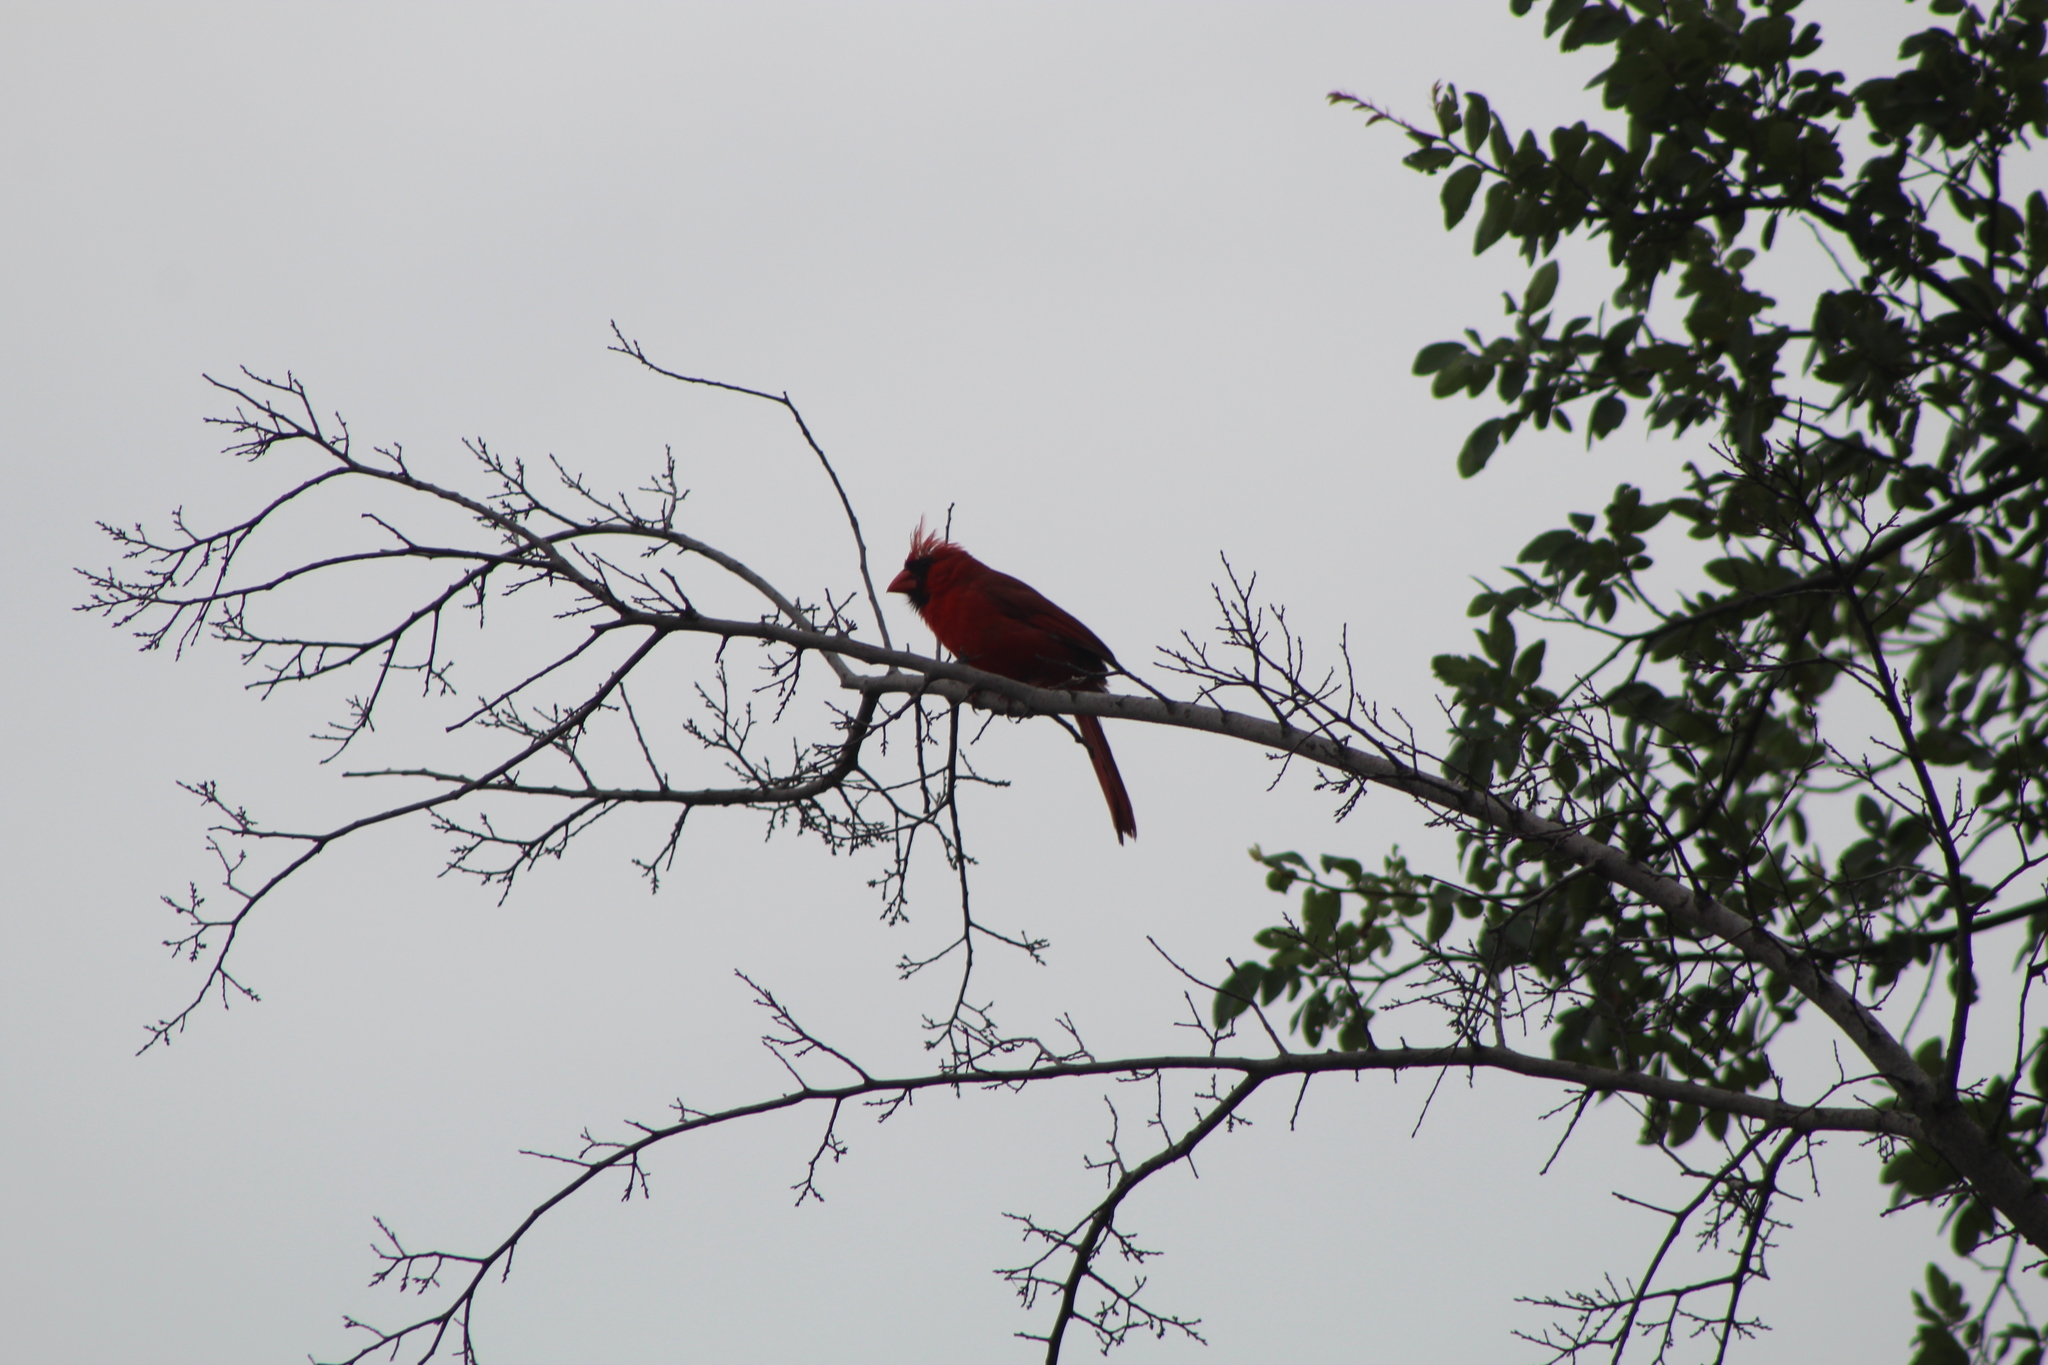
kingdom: Animalia
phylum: Chordata
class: Aves
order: Passeriformes
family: Cardinalidae
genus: Cardinalis
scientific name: Cardinalis cardinalis
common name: Northern cardinal
